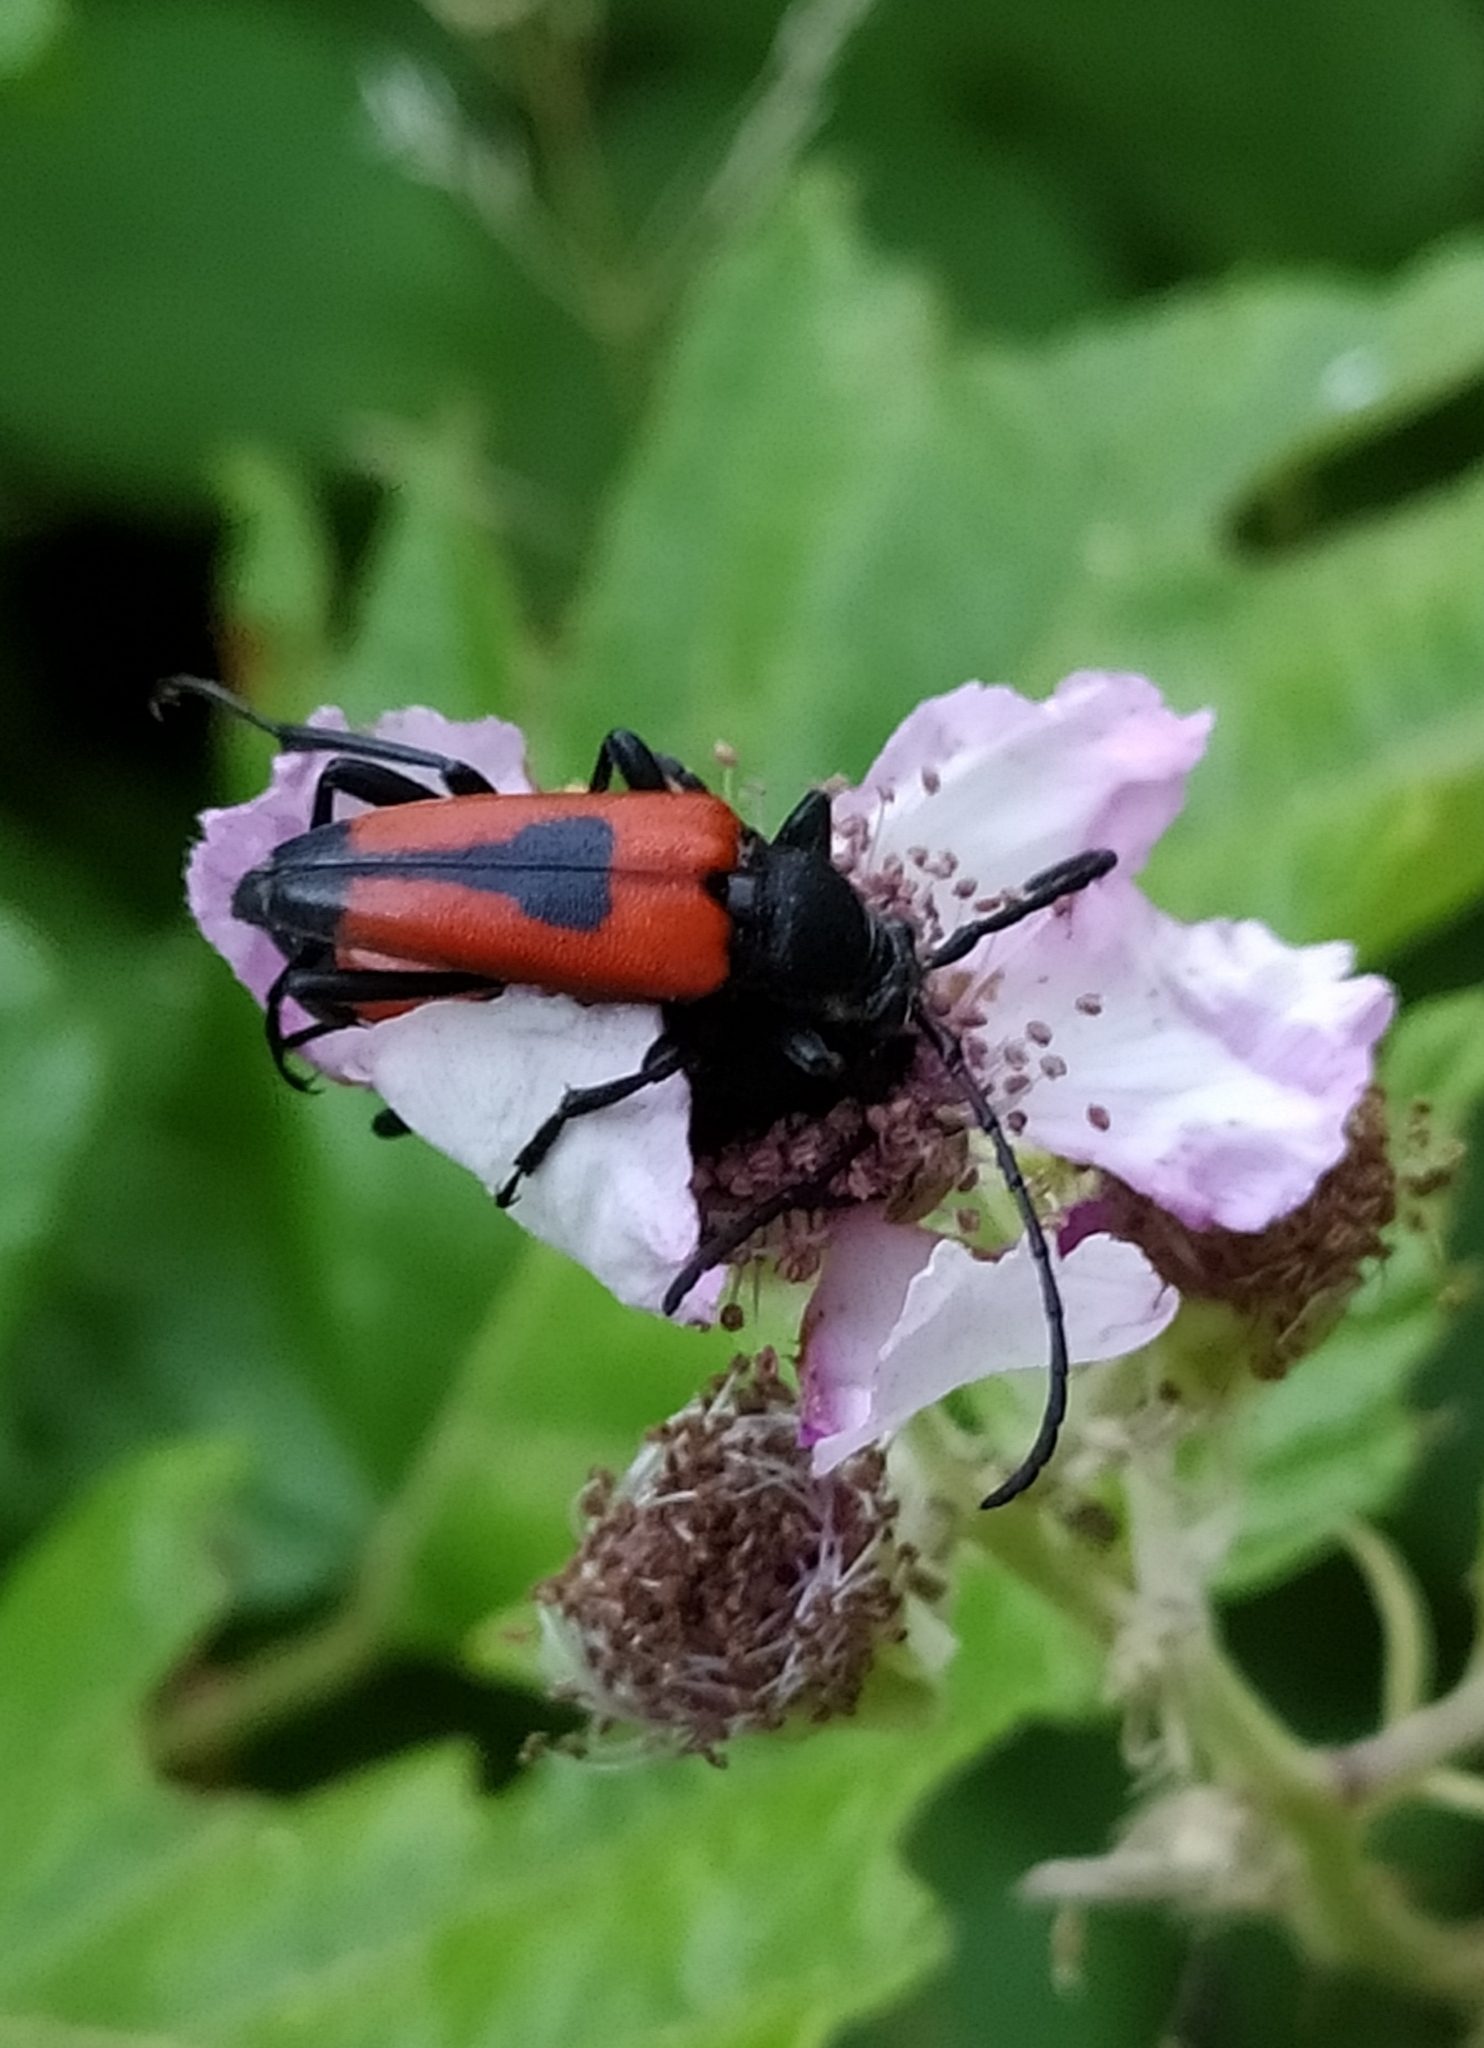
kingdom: Animalia
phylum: Arthropoda
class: Insecta
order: Coleoptera
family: Cerambycidae
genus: Stictoleptura
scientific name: Stictoleptura cordigera
